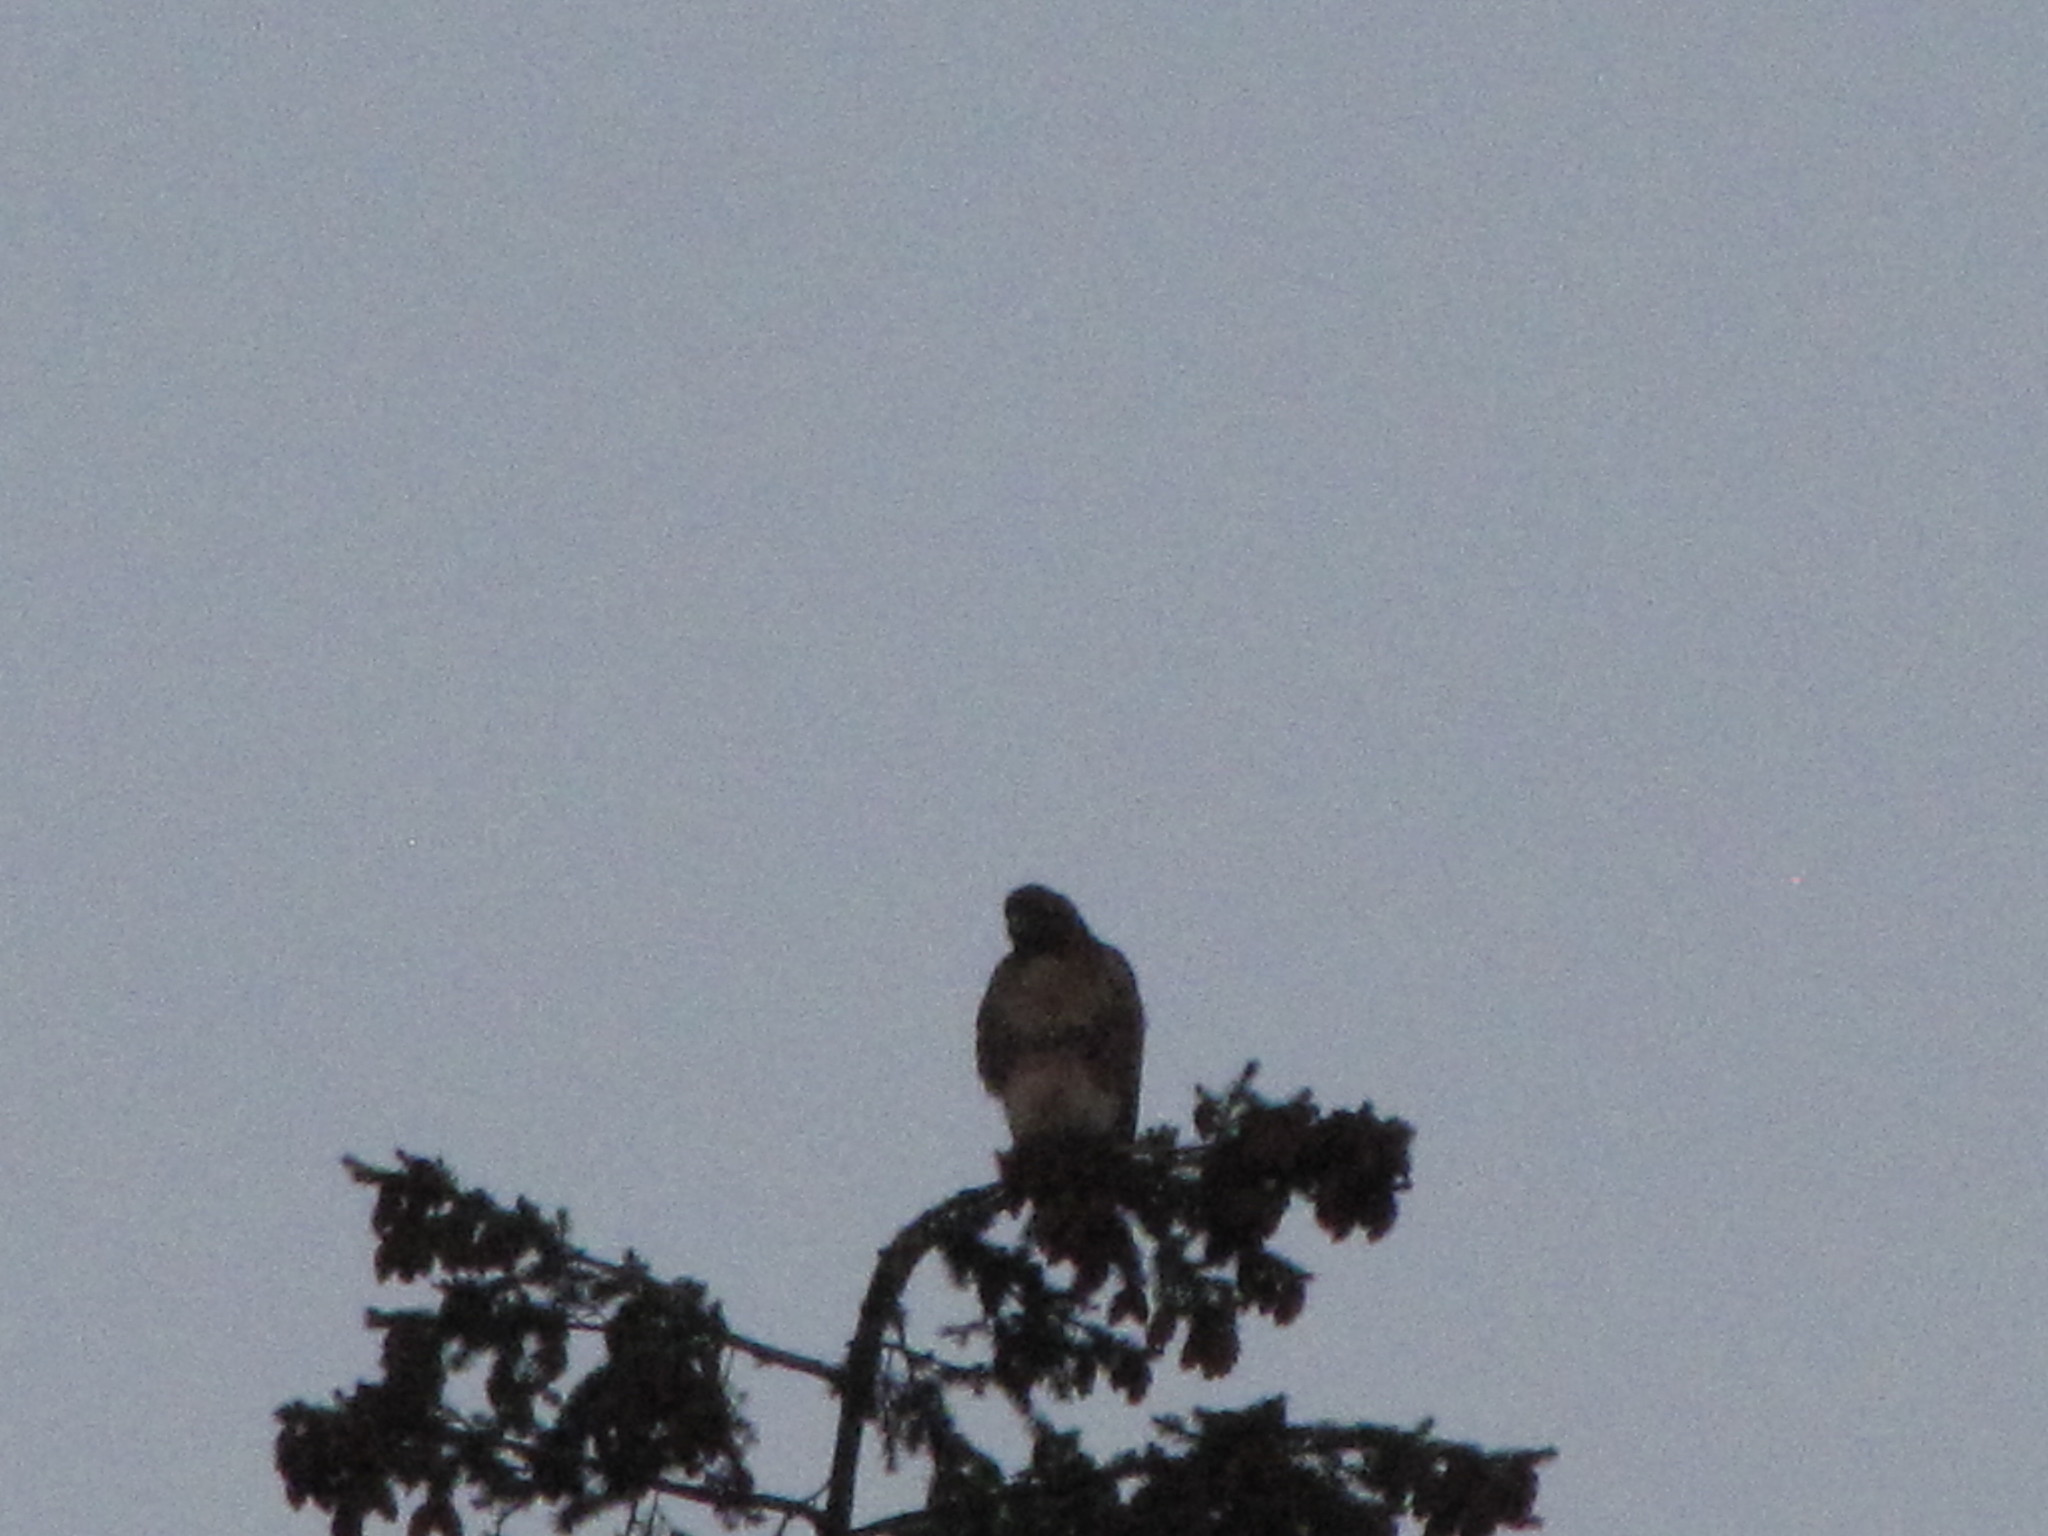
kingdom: Animalia
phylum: Chordata
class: Aves
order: Accipitriformes
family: Accipitridae
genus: Buteo
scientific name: Buteo jamaicensis
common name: Red-tailed hawk
